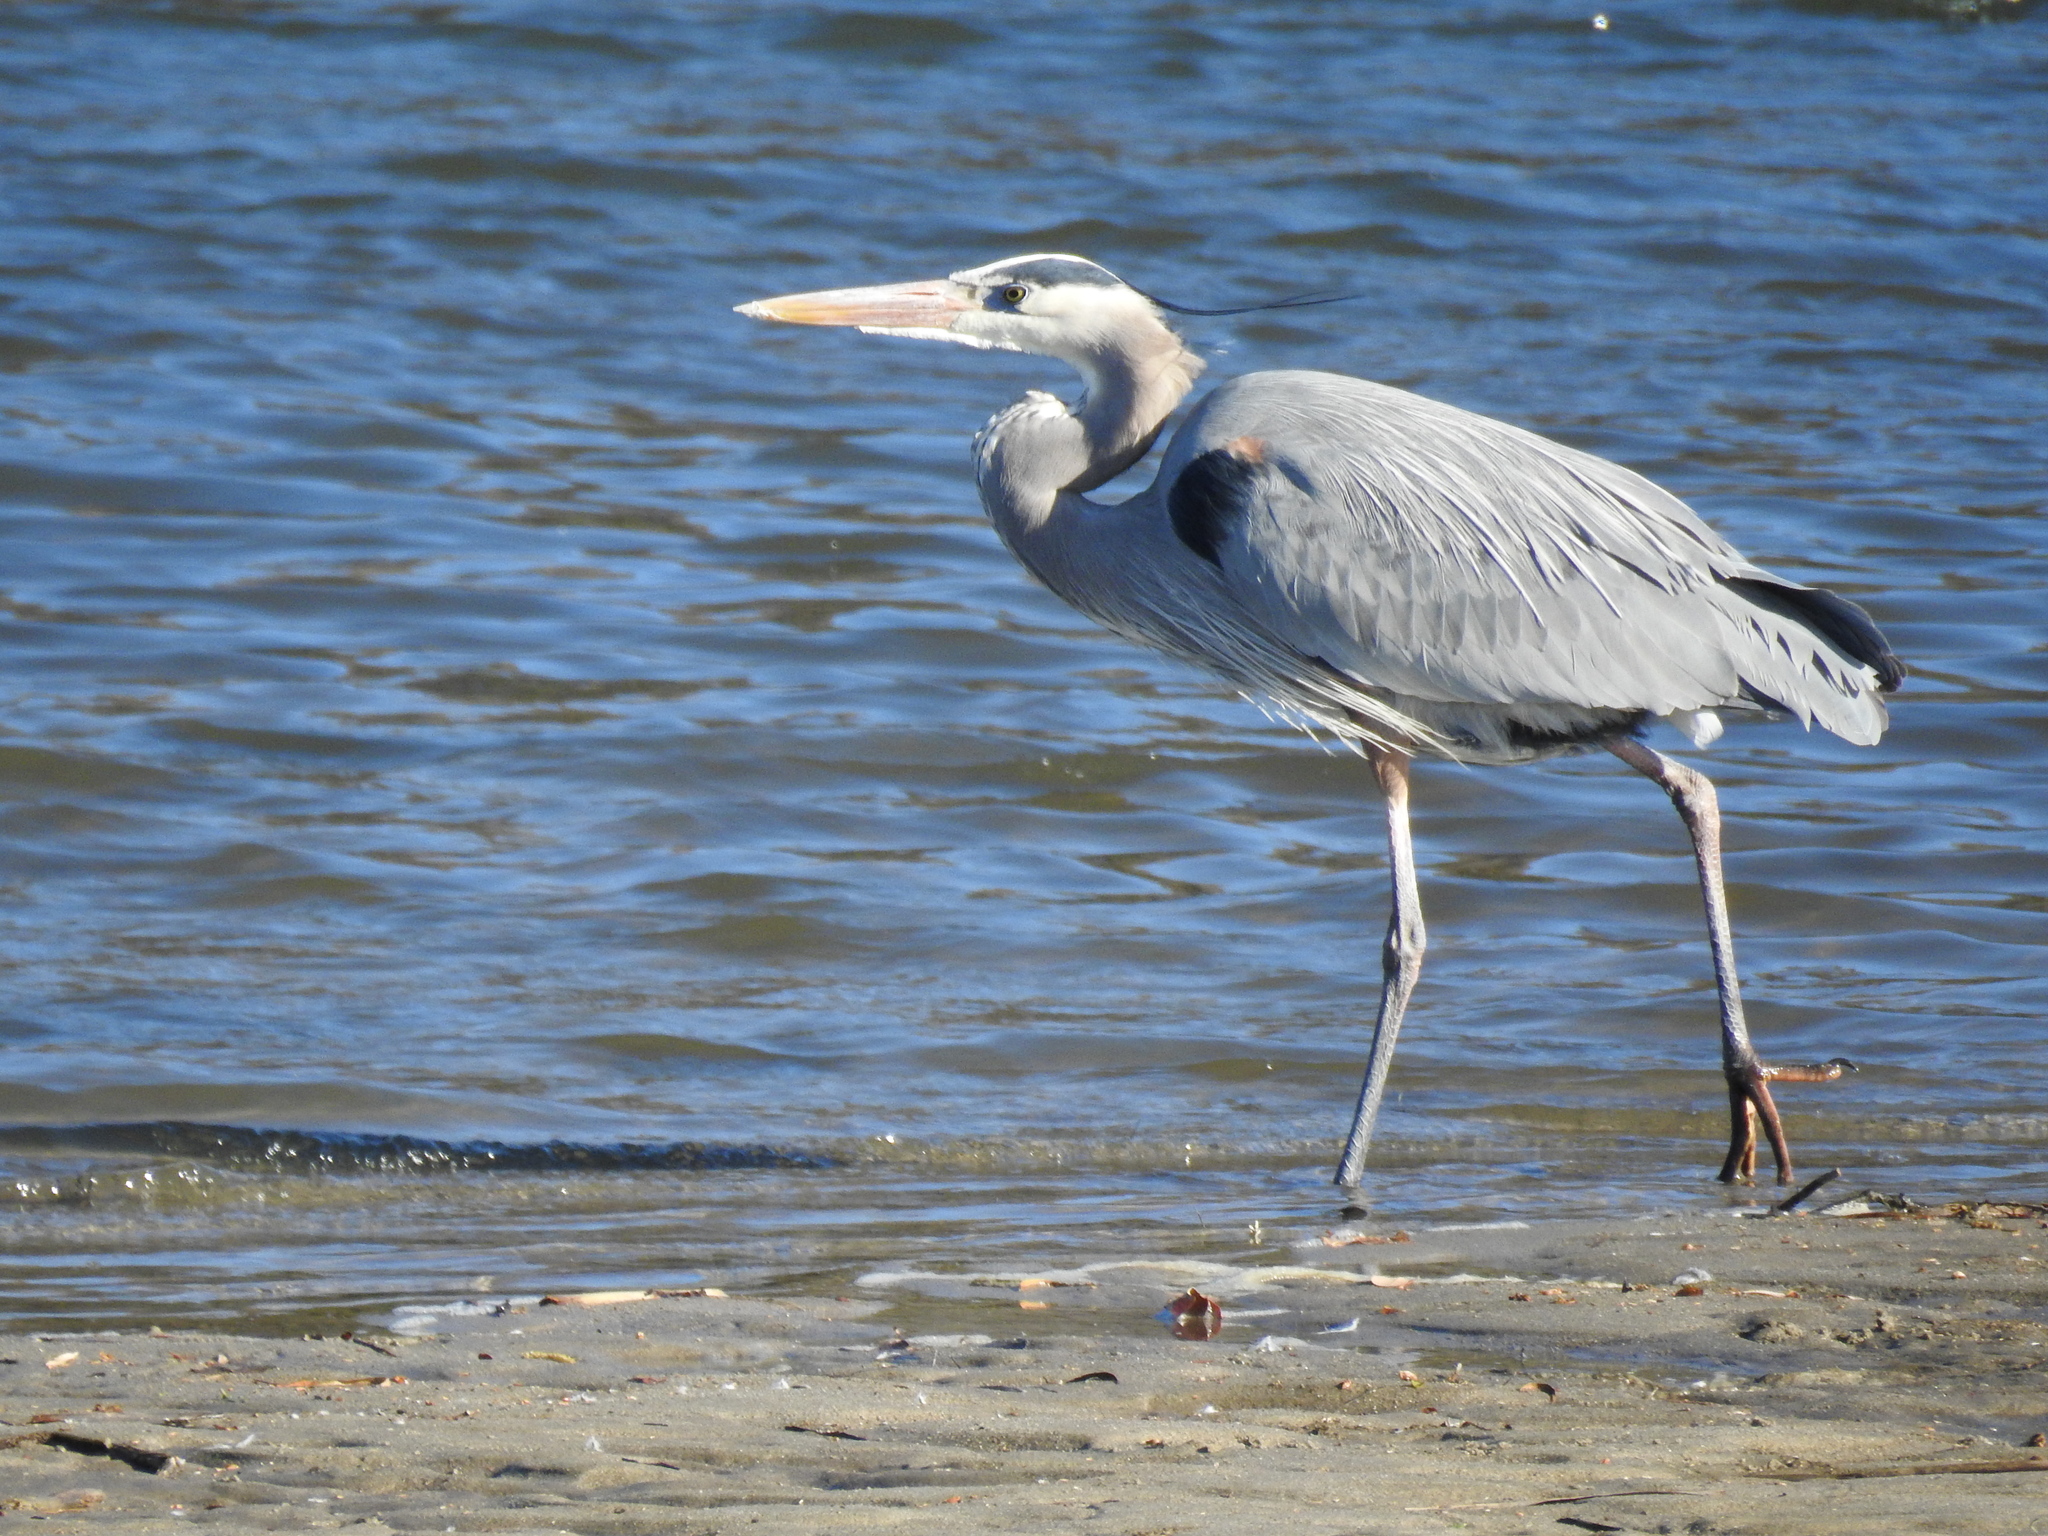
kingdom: Animalia
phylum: Chordata
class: Aves
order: Pelecaniformes
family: Ardeidae
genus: Ardea
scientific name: Ardea herodias
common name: Great blue heron
